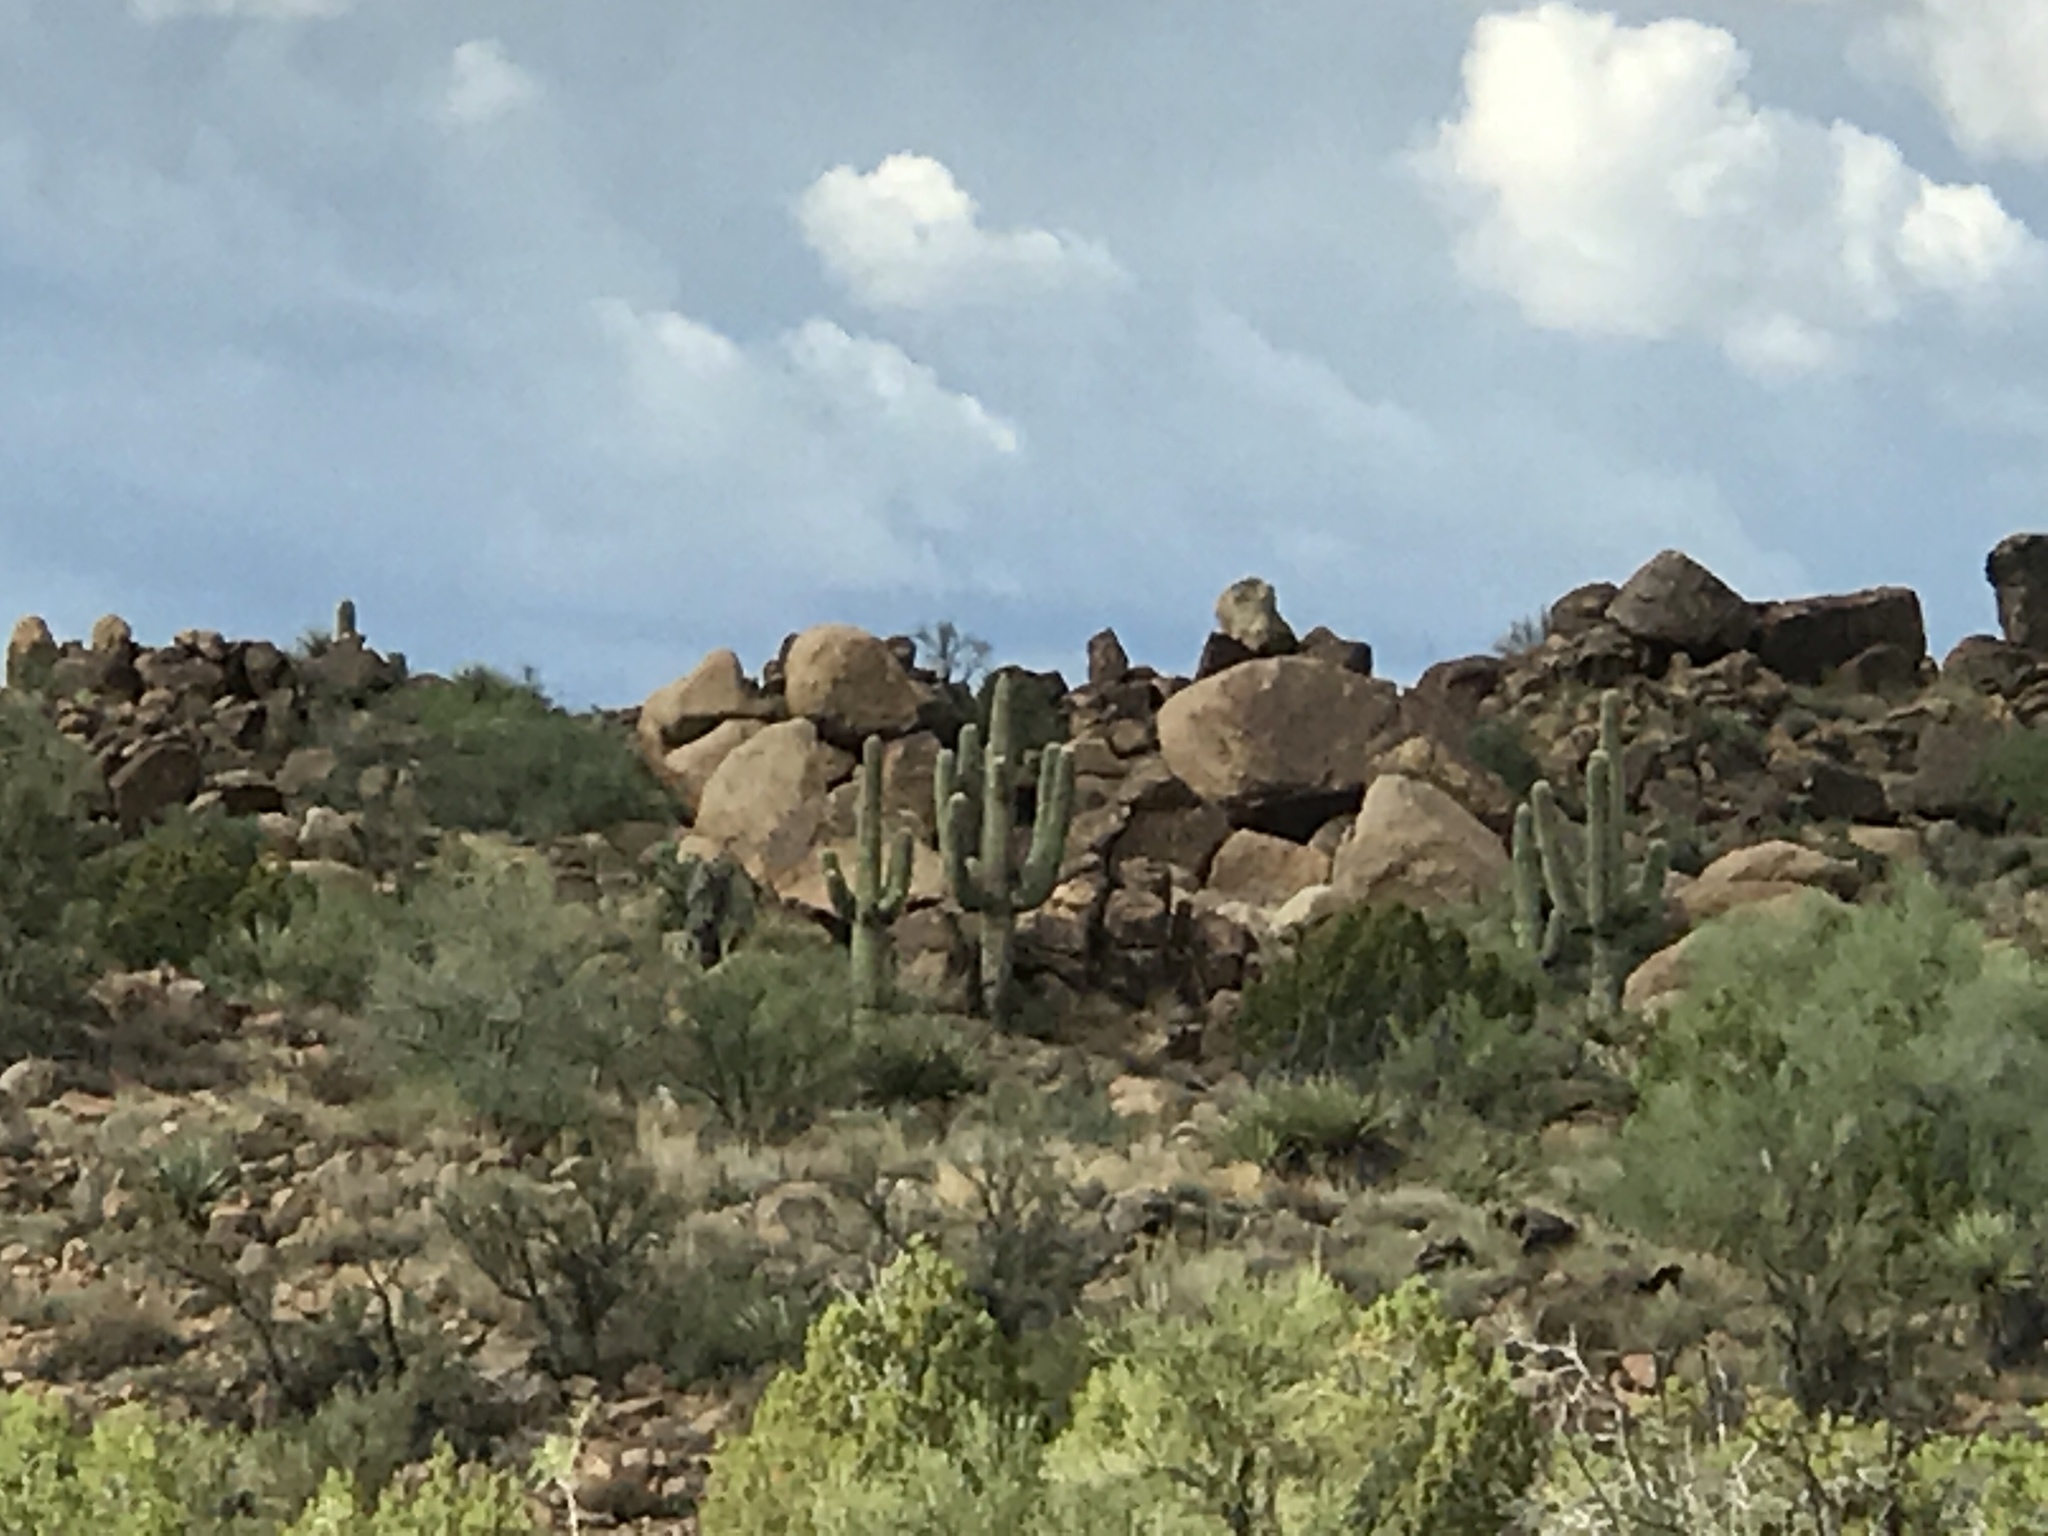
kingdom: Plantae
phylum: Tracheophyta
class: Magnoliopsida
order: Caryophyllales
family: Cactaceae
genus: Carnegiea
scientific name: Carnegiea gigantea
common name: Saguaro
